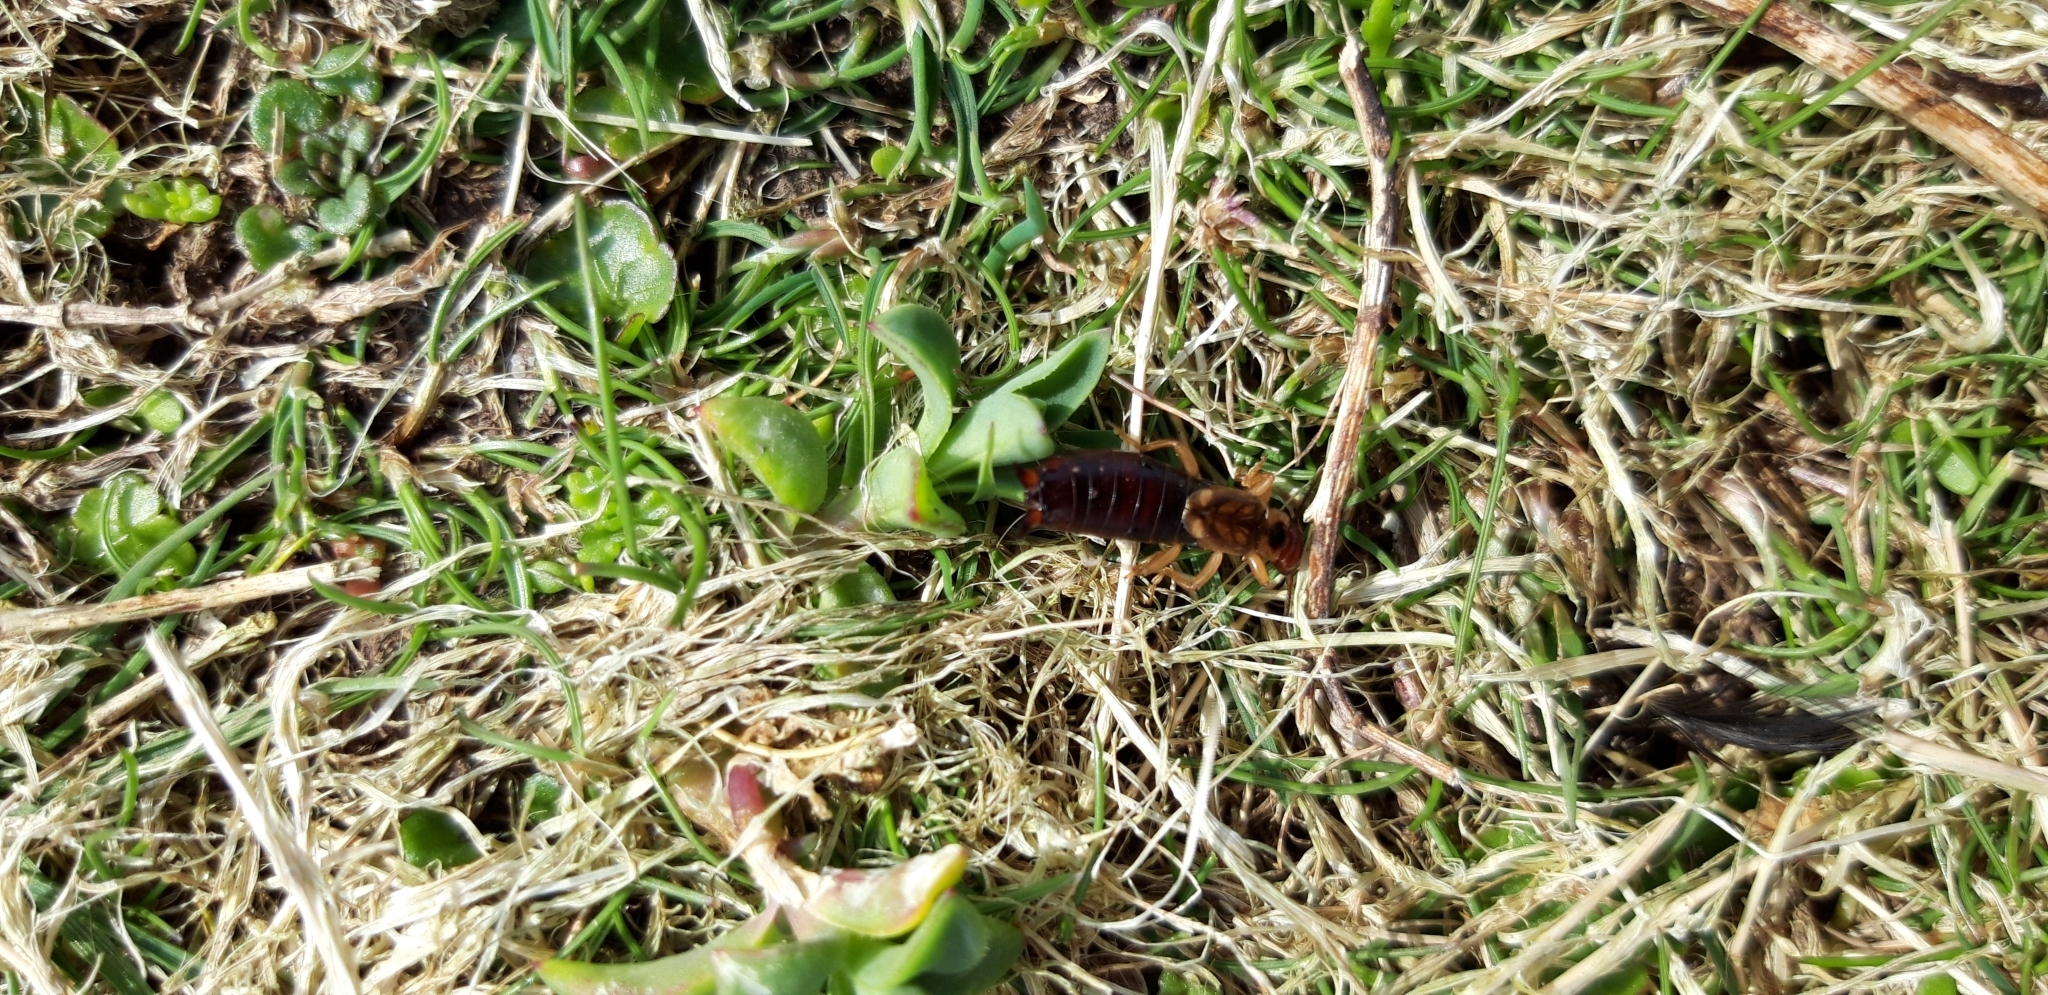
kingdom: Animalia
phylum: Arthropoda
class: Insecta
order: Dermaptera
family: Forficulidae
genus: Forficula
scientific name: Forficula
